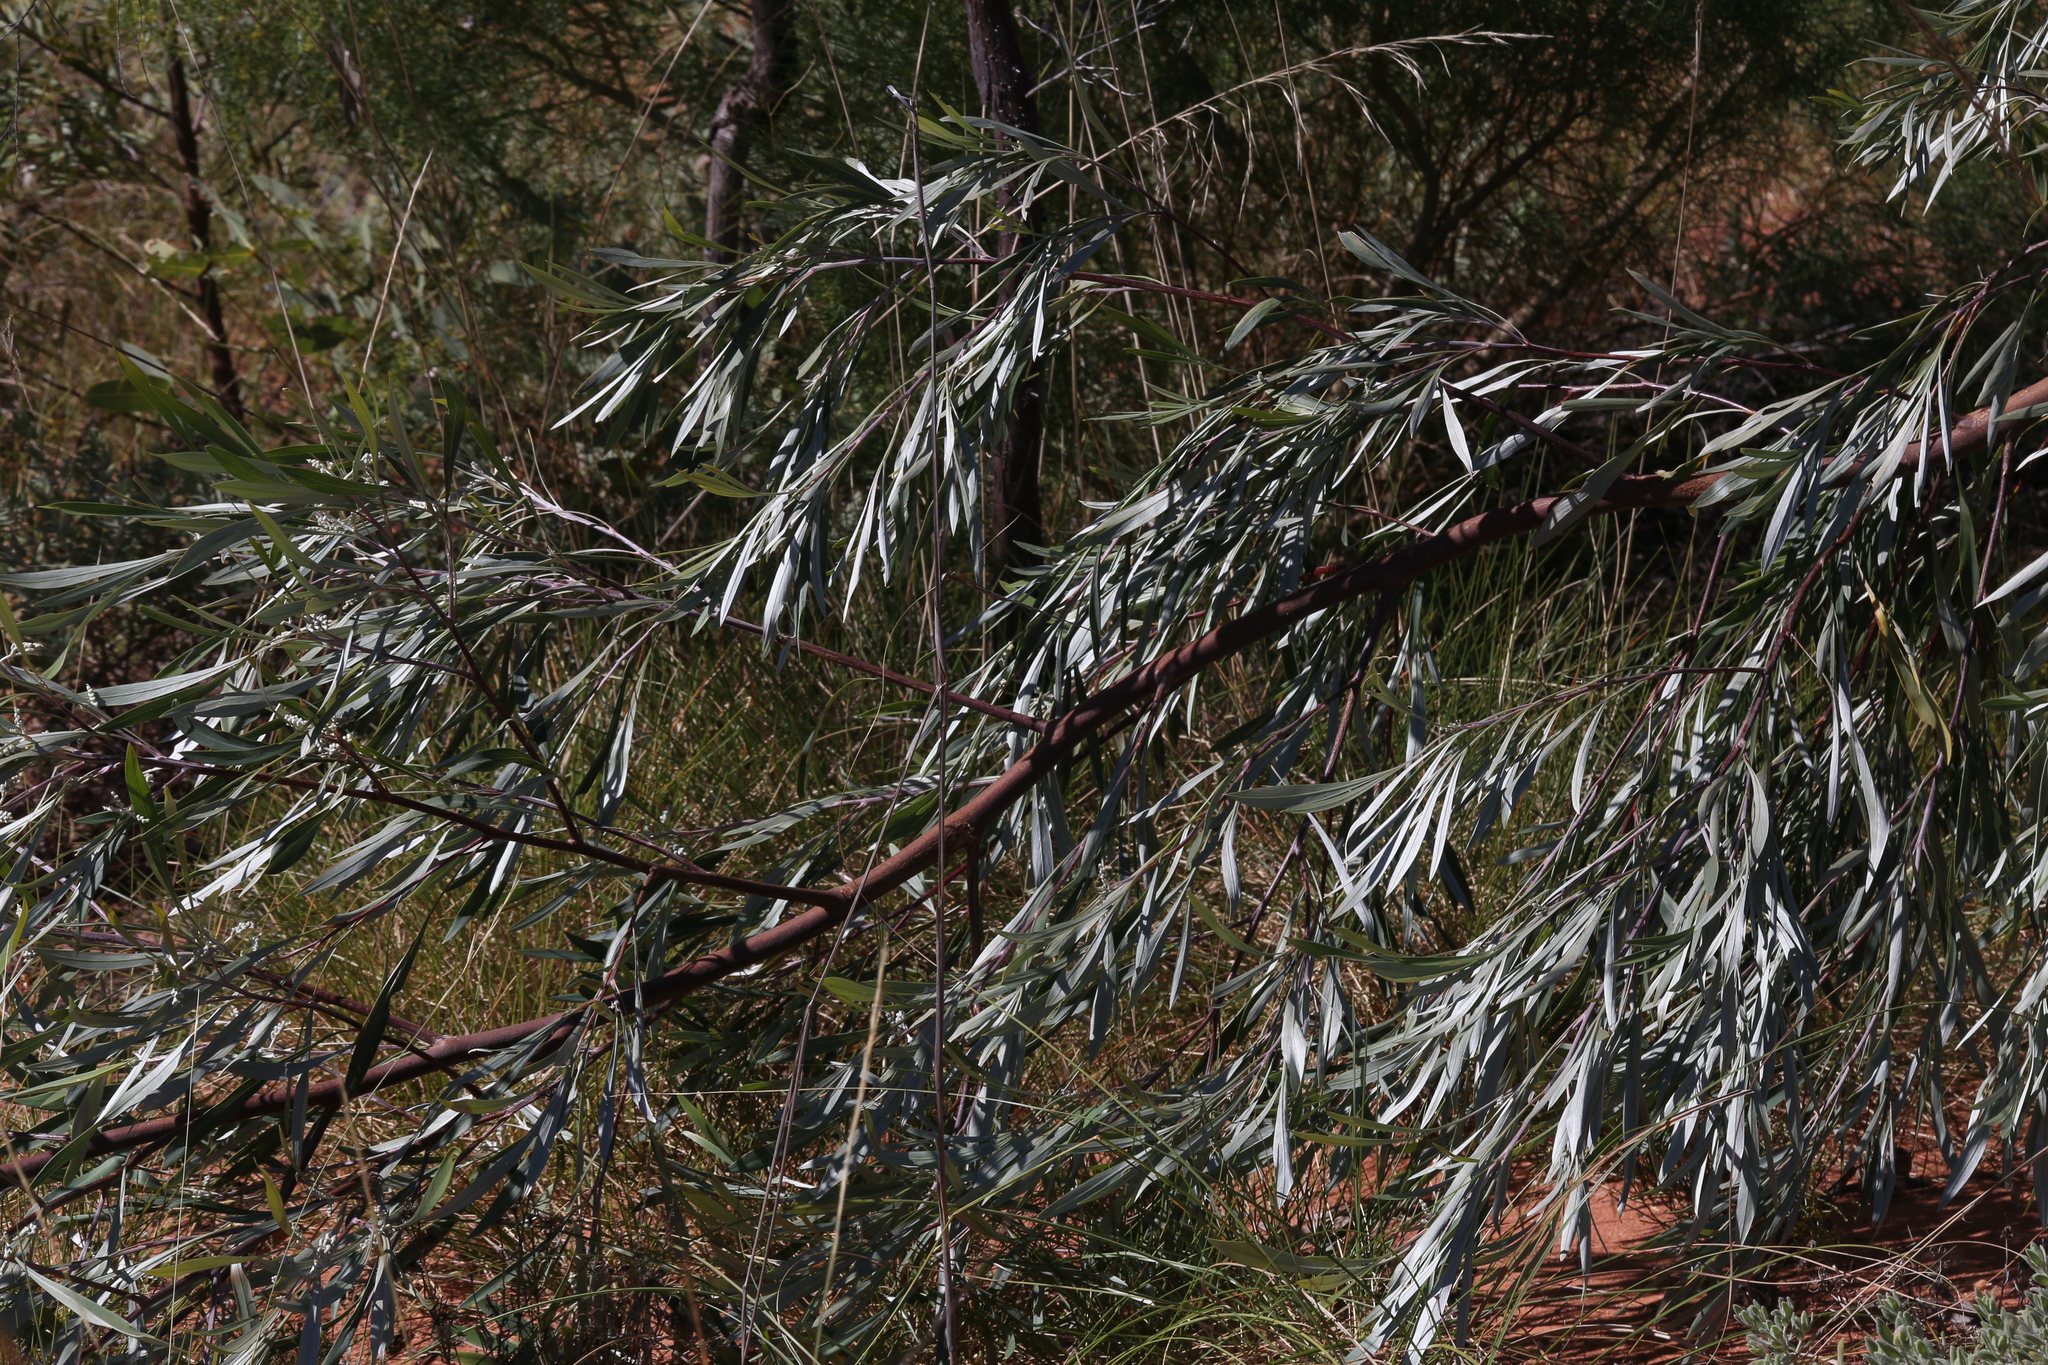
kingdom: Plantae
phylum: Tracheophyta
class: Magnoliopsida
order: Proteales
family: Proteaceae
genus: Grevillea
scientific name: Grevillea refracta
